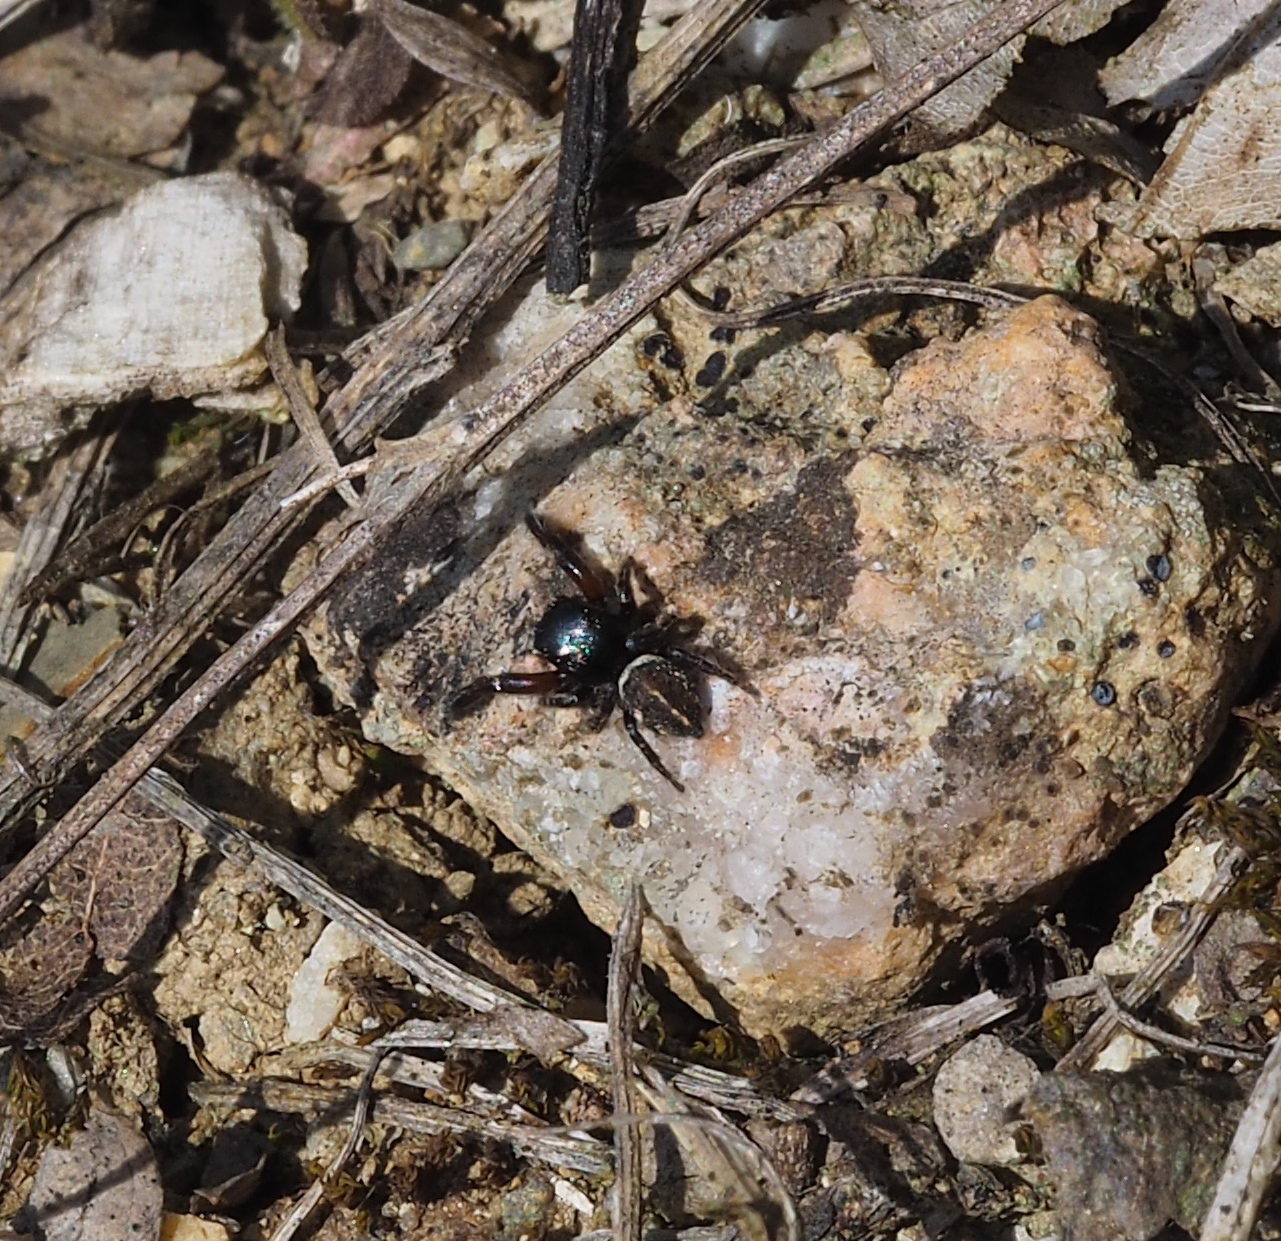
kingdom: Animalia
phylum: Arthropoda
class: Arachnida
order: Araneae
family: Salticidae
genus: Pellenes
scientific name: Pellenes nigrociliatus
